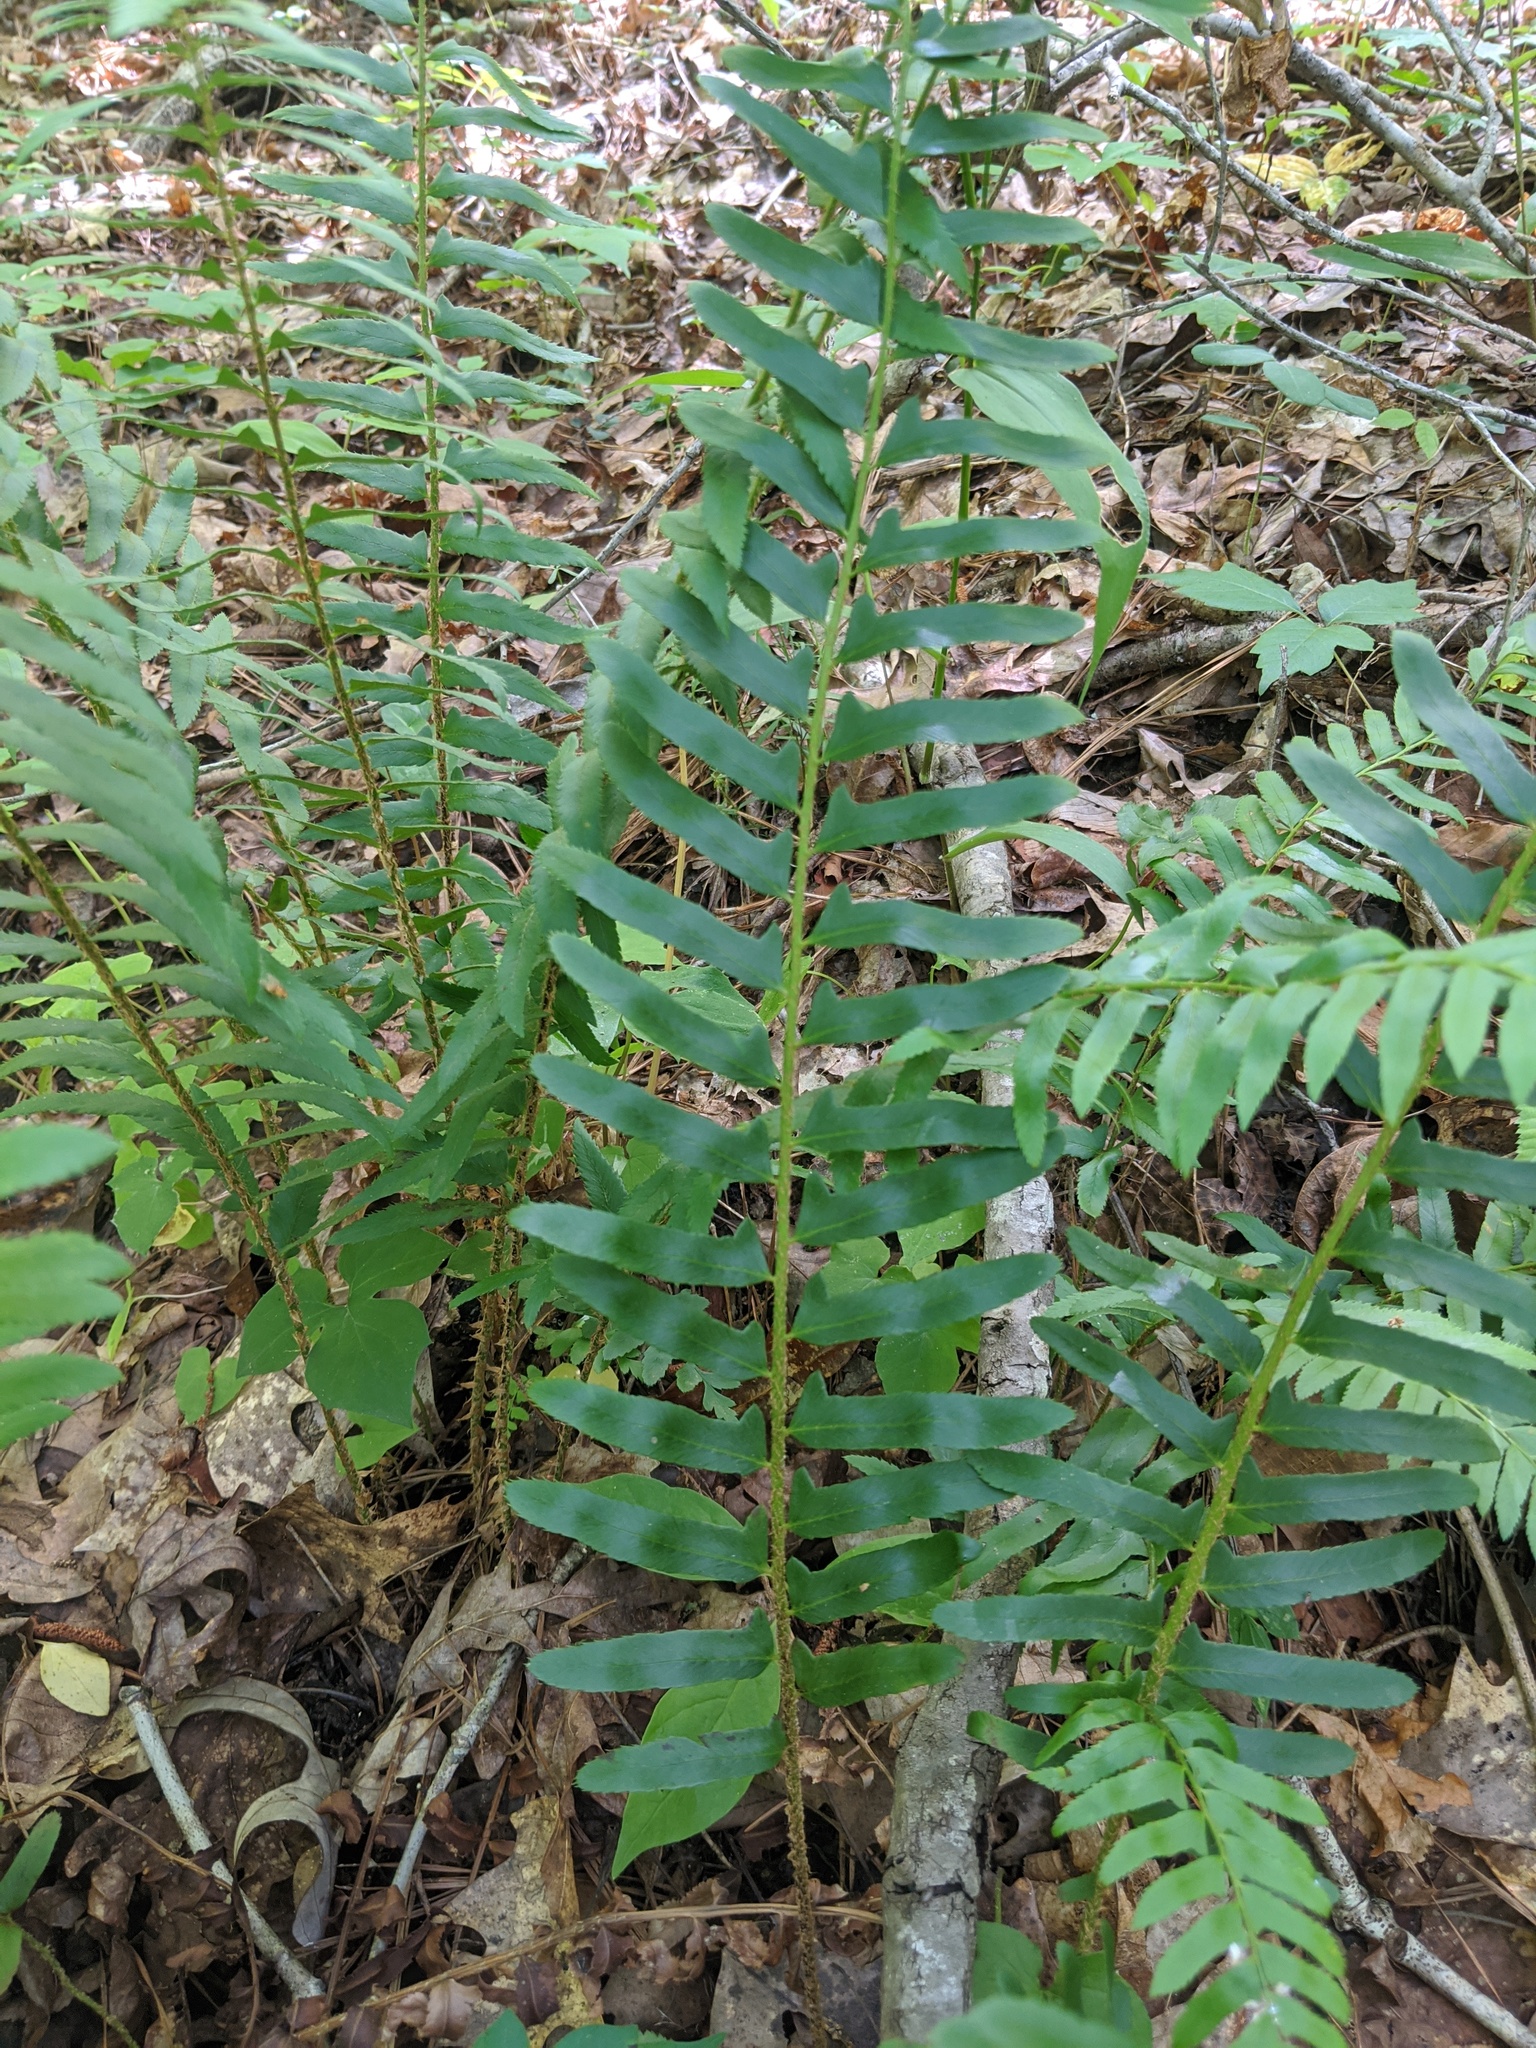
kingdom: Plantae
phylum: Tracheophyta
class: Polypodiopsida
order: Polypodiales
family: Dryopteridaceae
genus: Polystichum
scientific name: Polystichum acrostichoides
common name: Christmas fern
